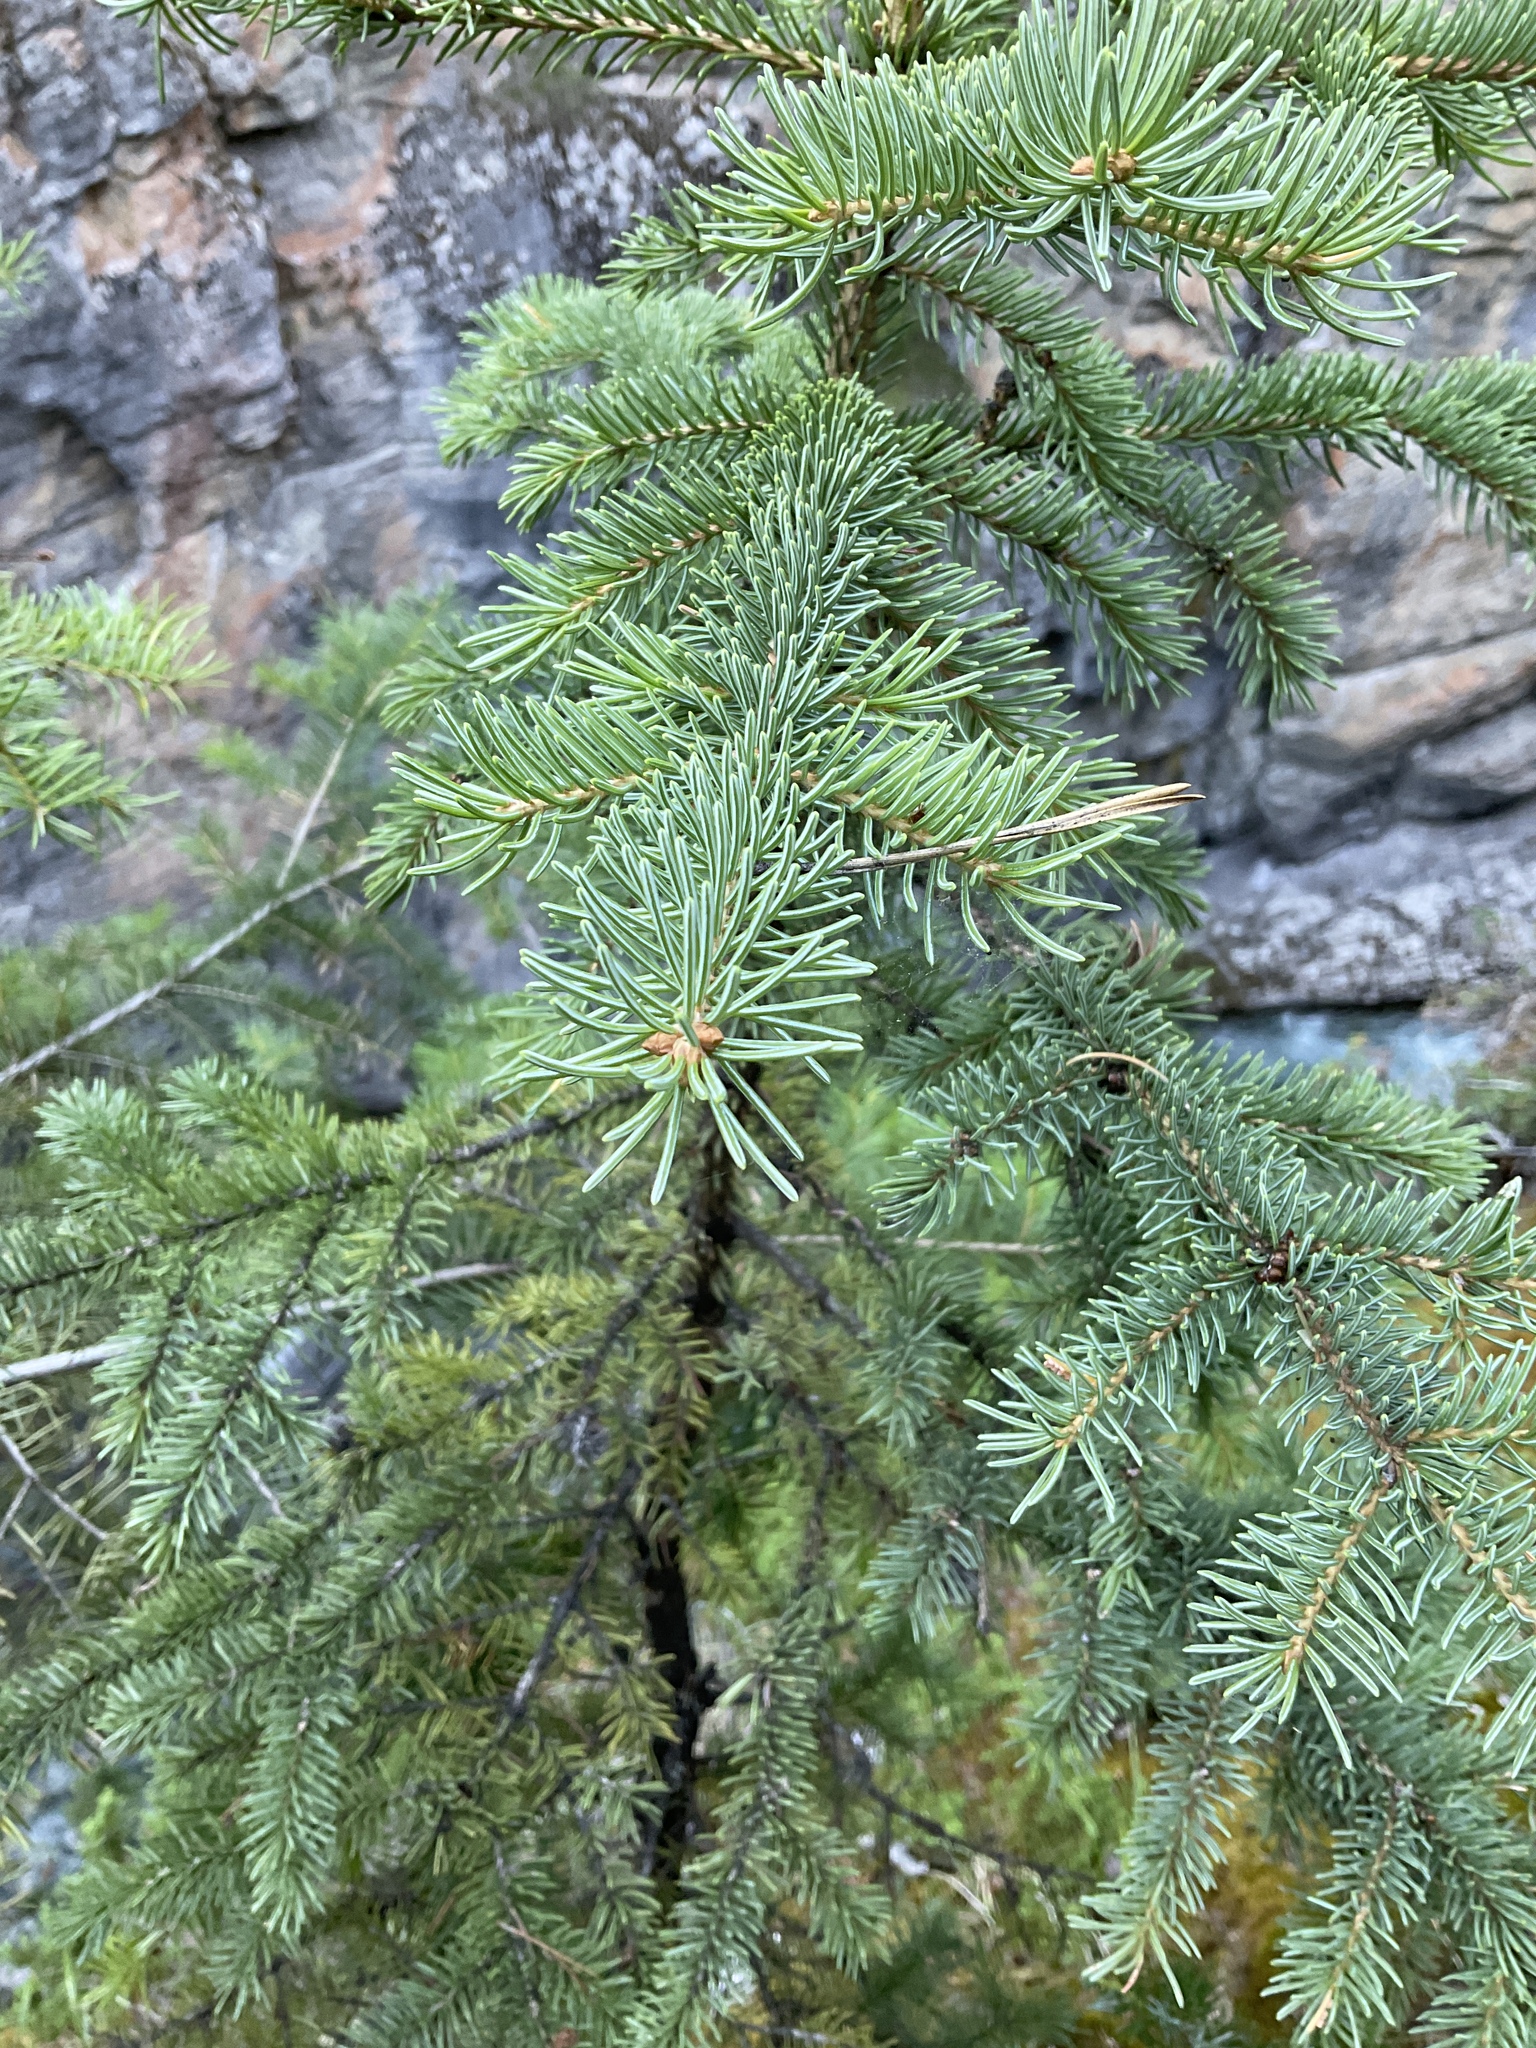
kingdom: Plantae
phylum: Tracheophyta
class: Pinopsida
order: Pinales
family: Pinaceae
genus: Picea
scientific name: Picea glauca
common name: White spruce
